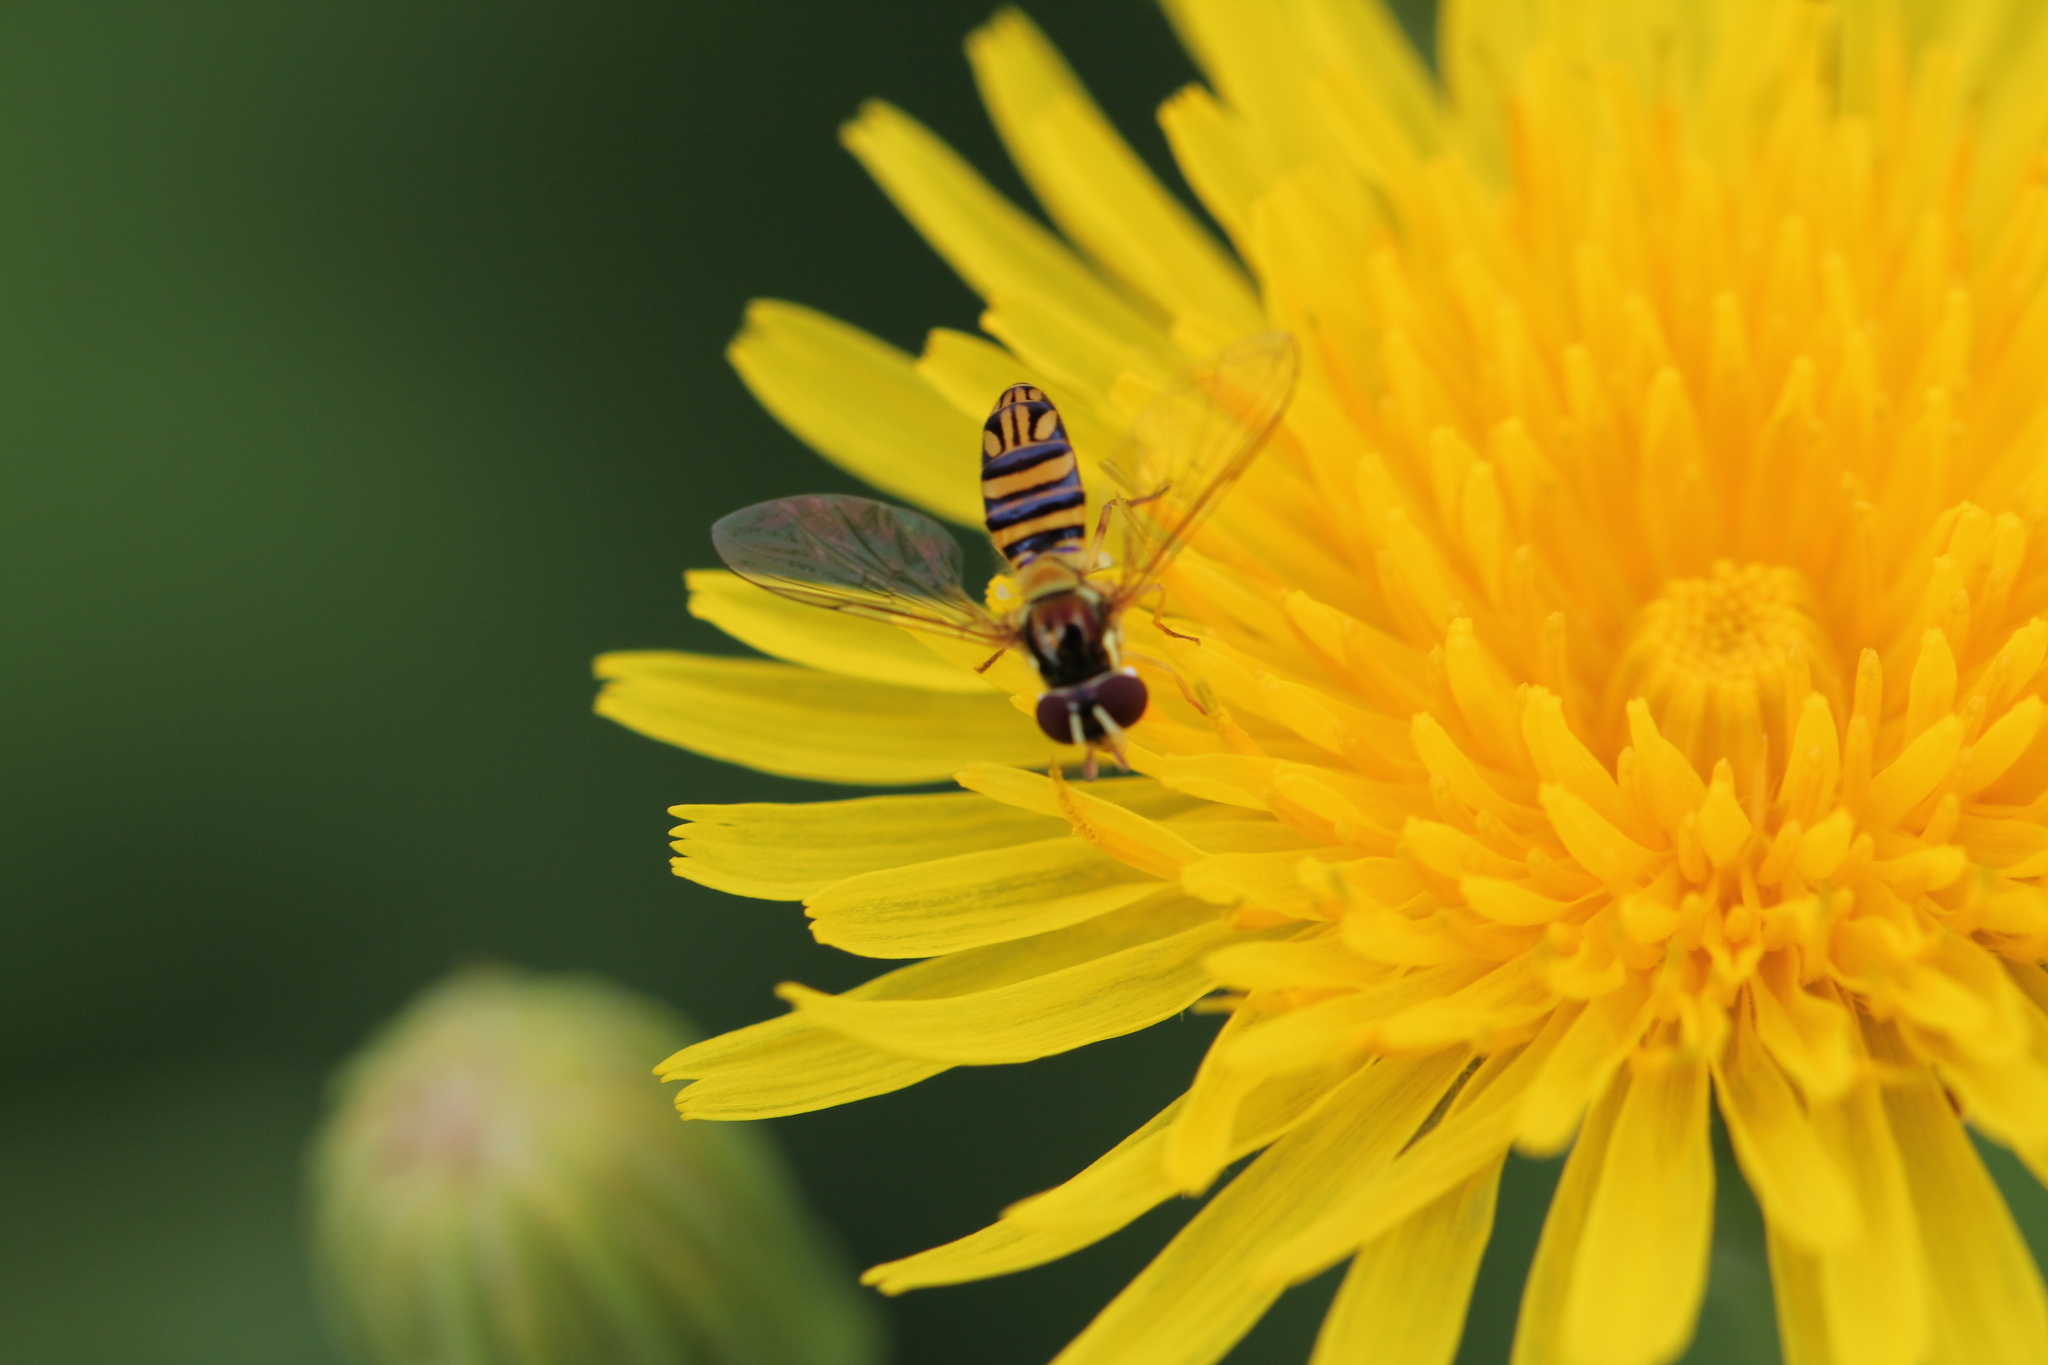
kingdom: Animalia
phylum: Arthropoda
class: Insecta
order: Diptera
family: Syrphidae
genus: Allograpta
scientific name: Allograpta obliqua
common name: Common oblique syrphid
